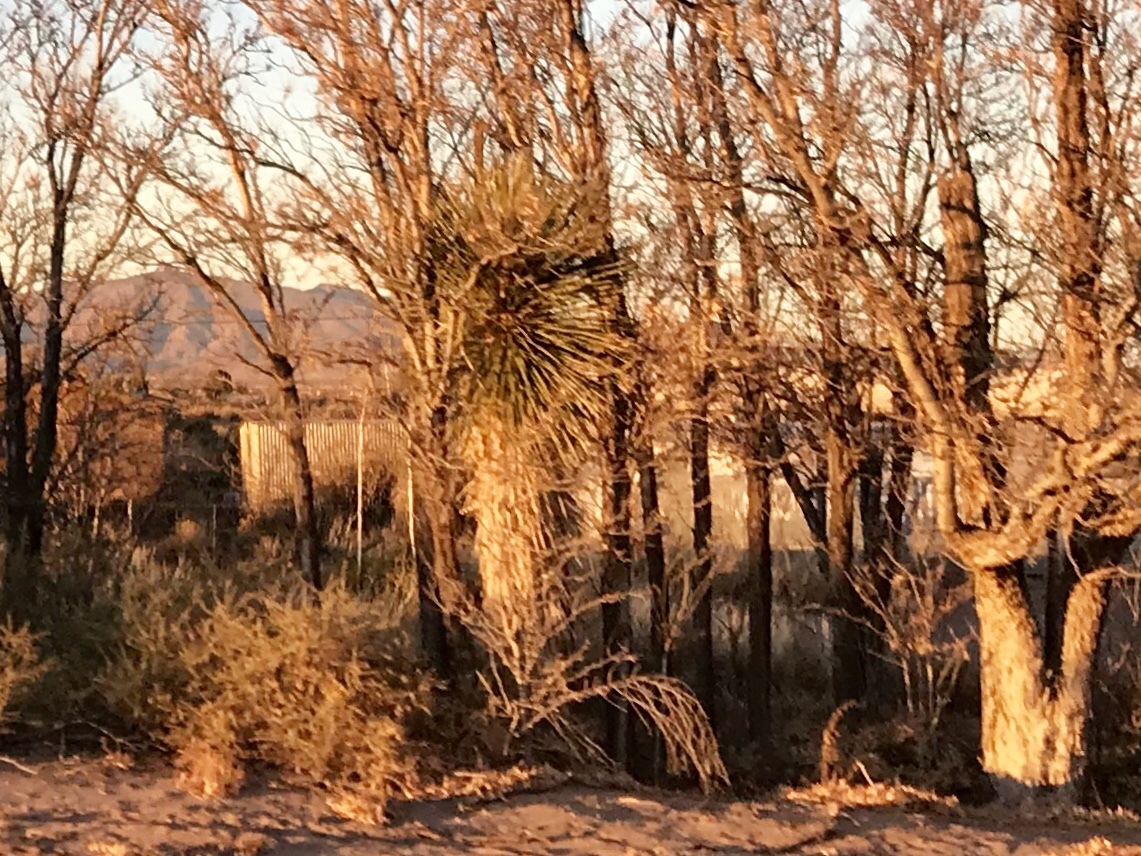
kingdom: Plantae
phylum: Tracheophyta
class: Liliopsida
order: Asparagales
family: Asparagaceae
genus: Yucca
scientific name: Yucca elata
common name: Palmella
